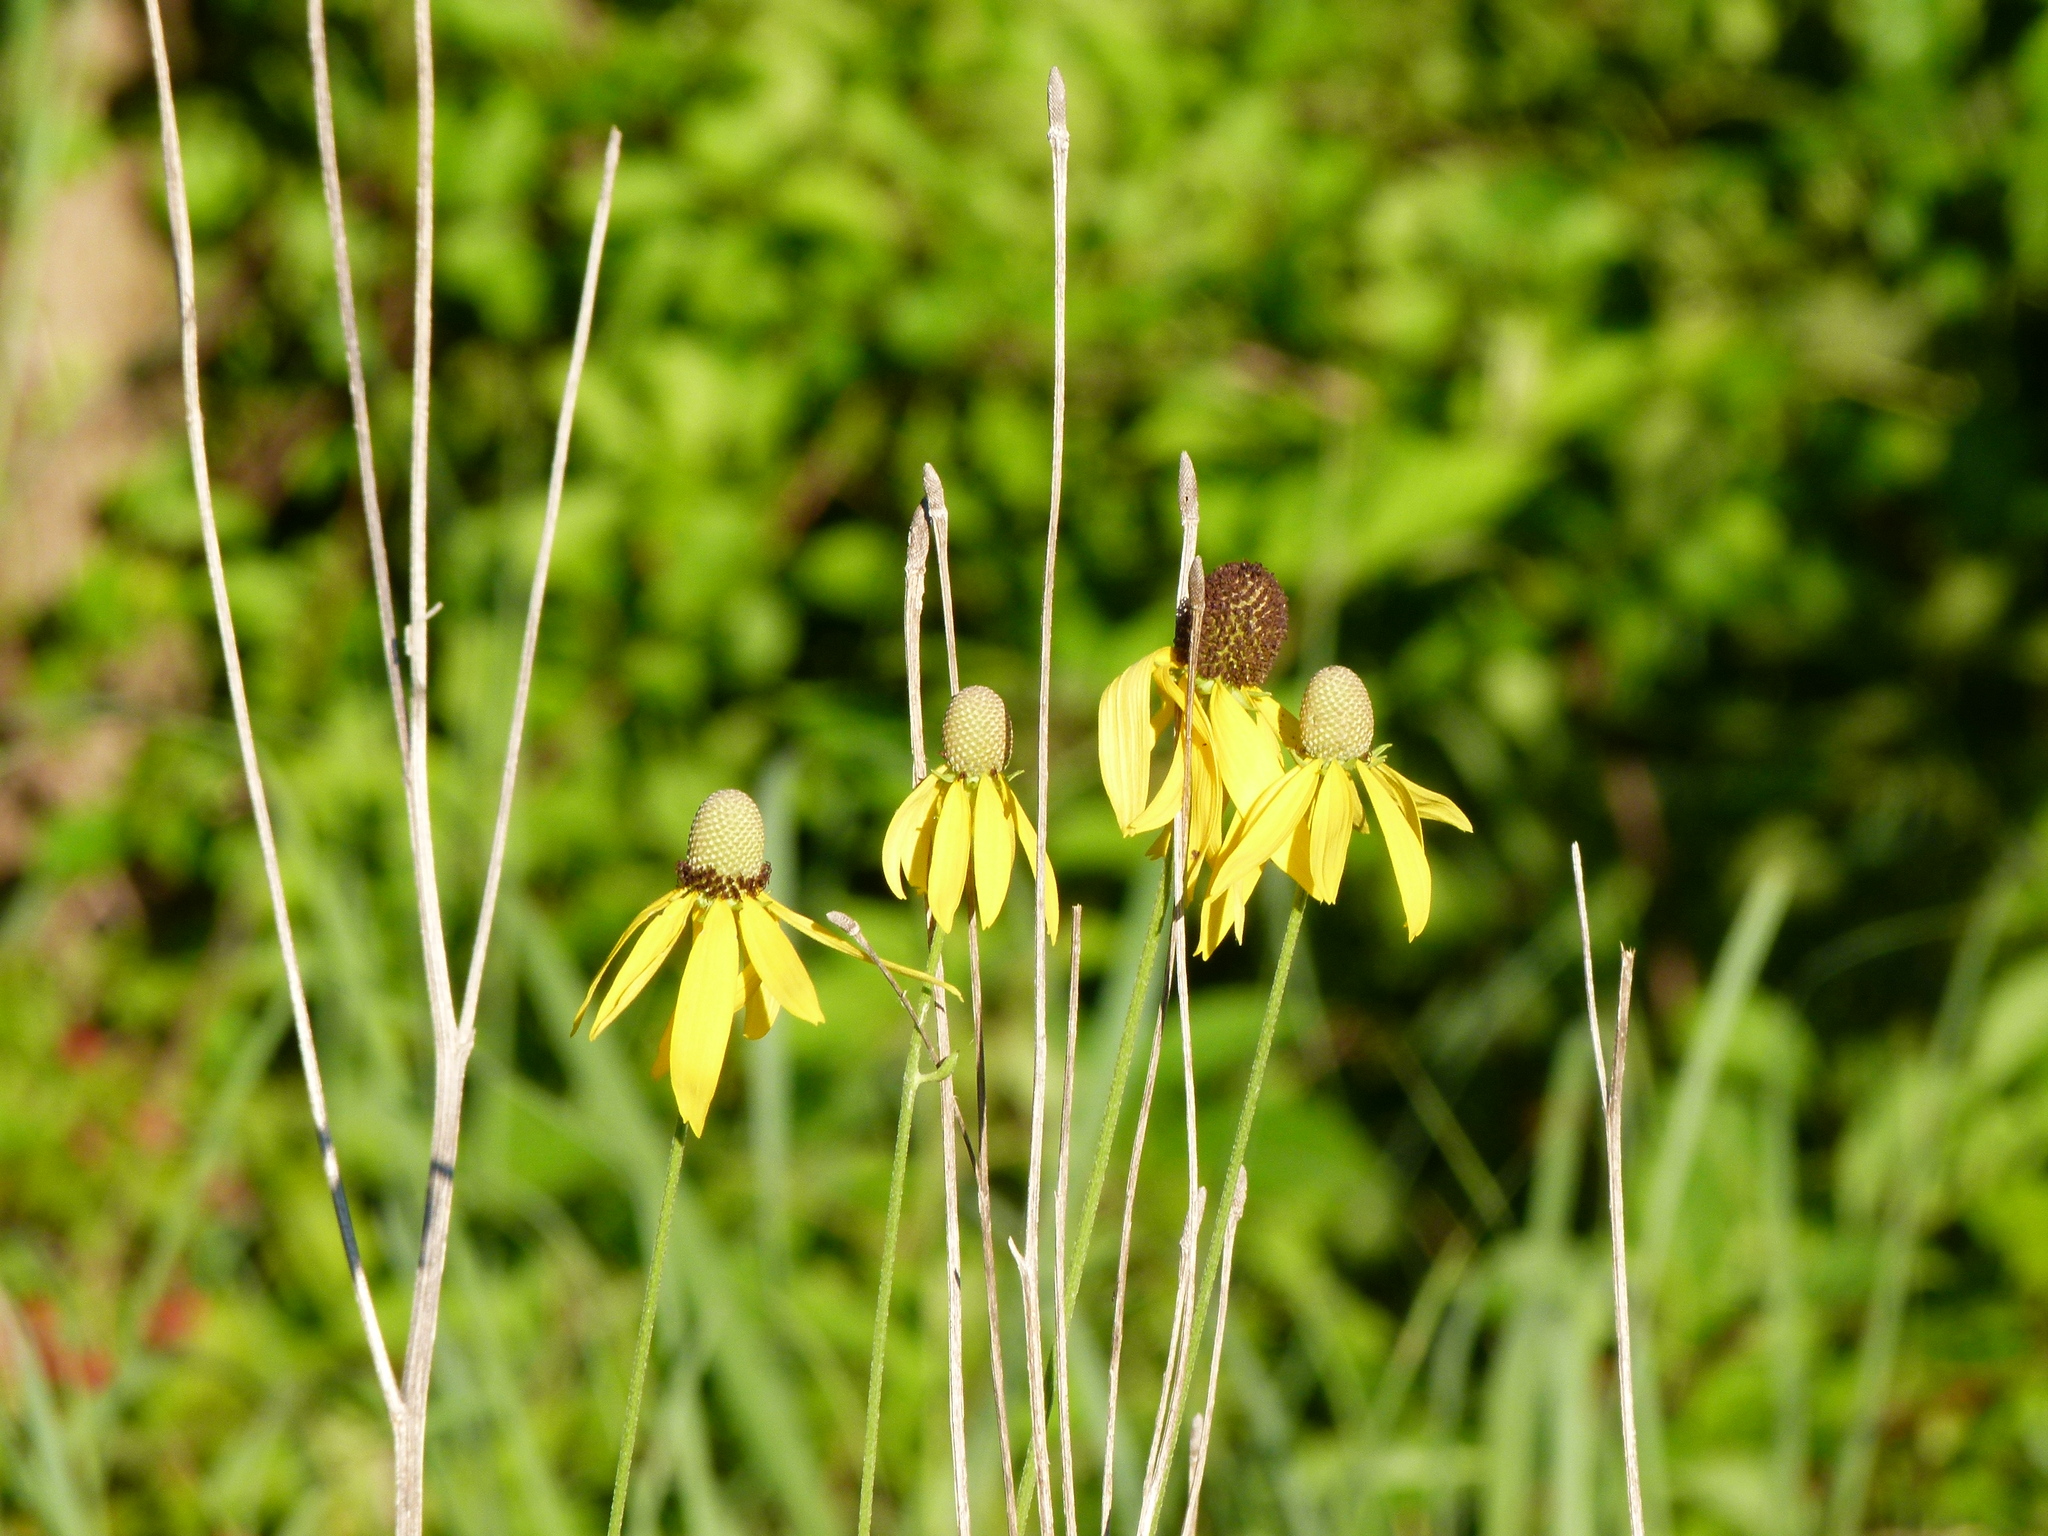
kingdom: Plantae
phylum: Tracheophyta
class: Magnoliopsida
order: Asterales
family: Asteraceae
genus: Ratibida
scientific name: Ratibida pinnata
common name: Drooping prairie-coneflower
